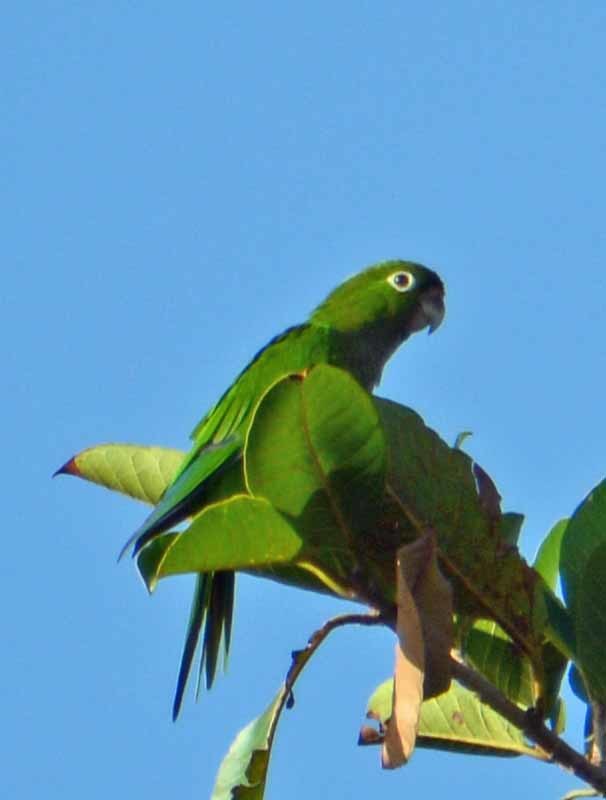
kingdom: Animalia
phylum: Chordata
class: Aves
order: Psittaciformes
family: Psittacidae
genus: Aratinga
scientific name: Aratinga nana
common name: Olive-throated parakeet
